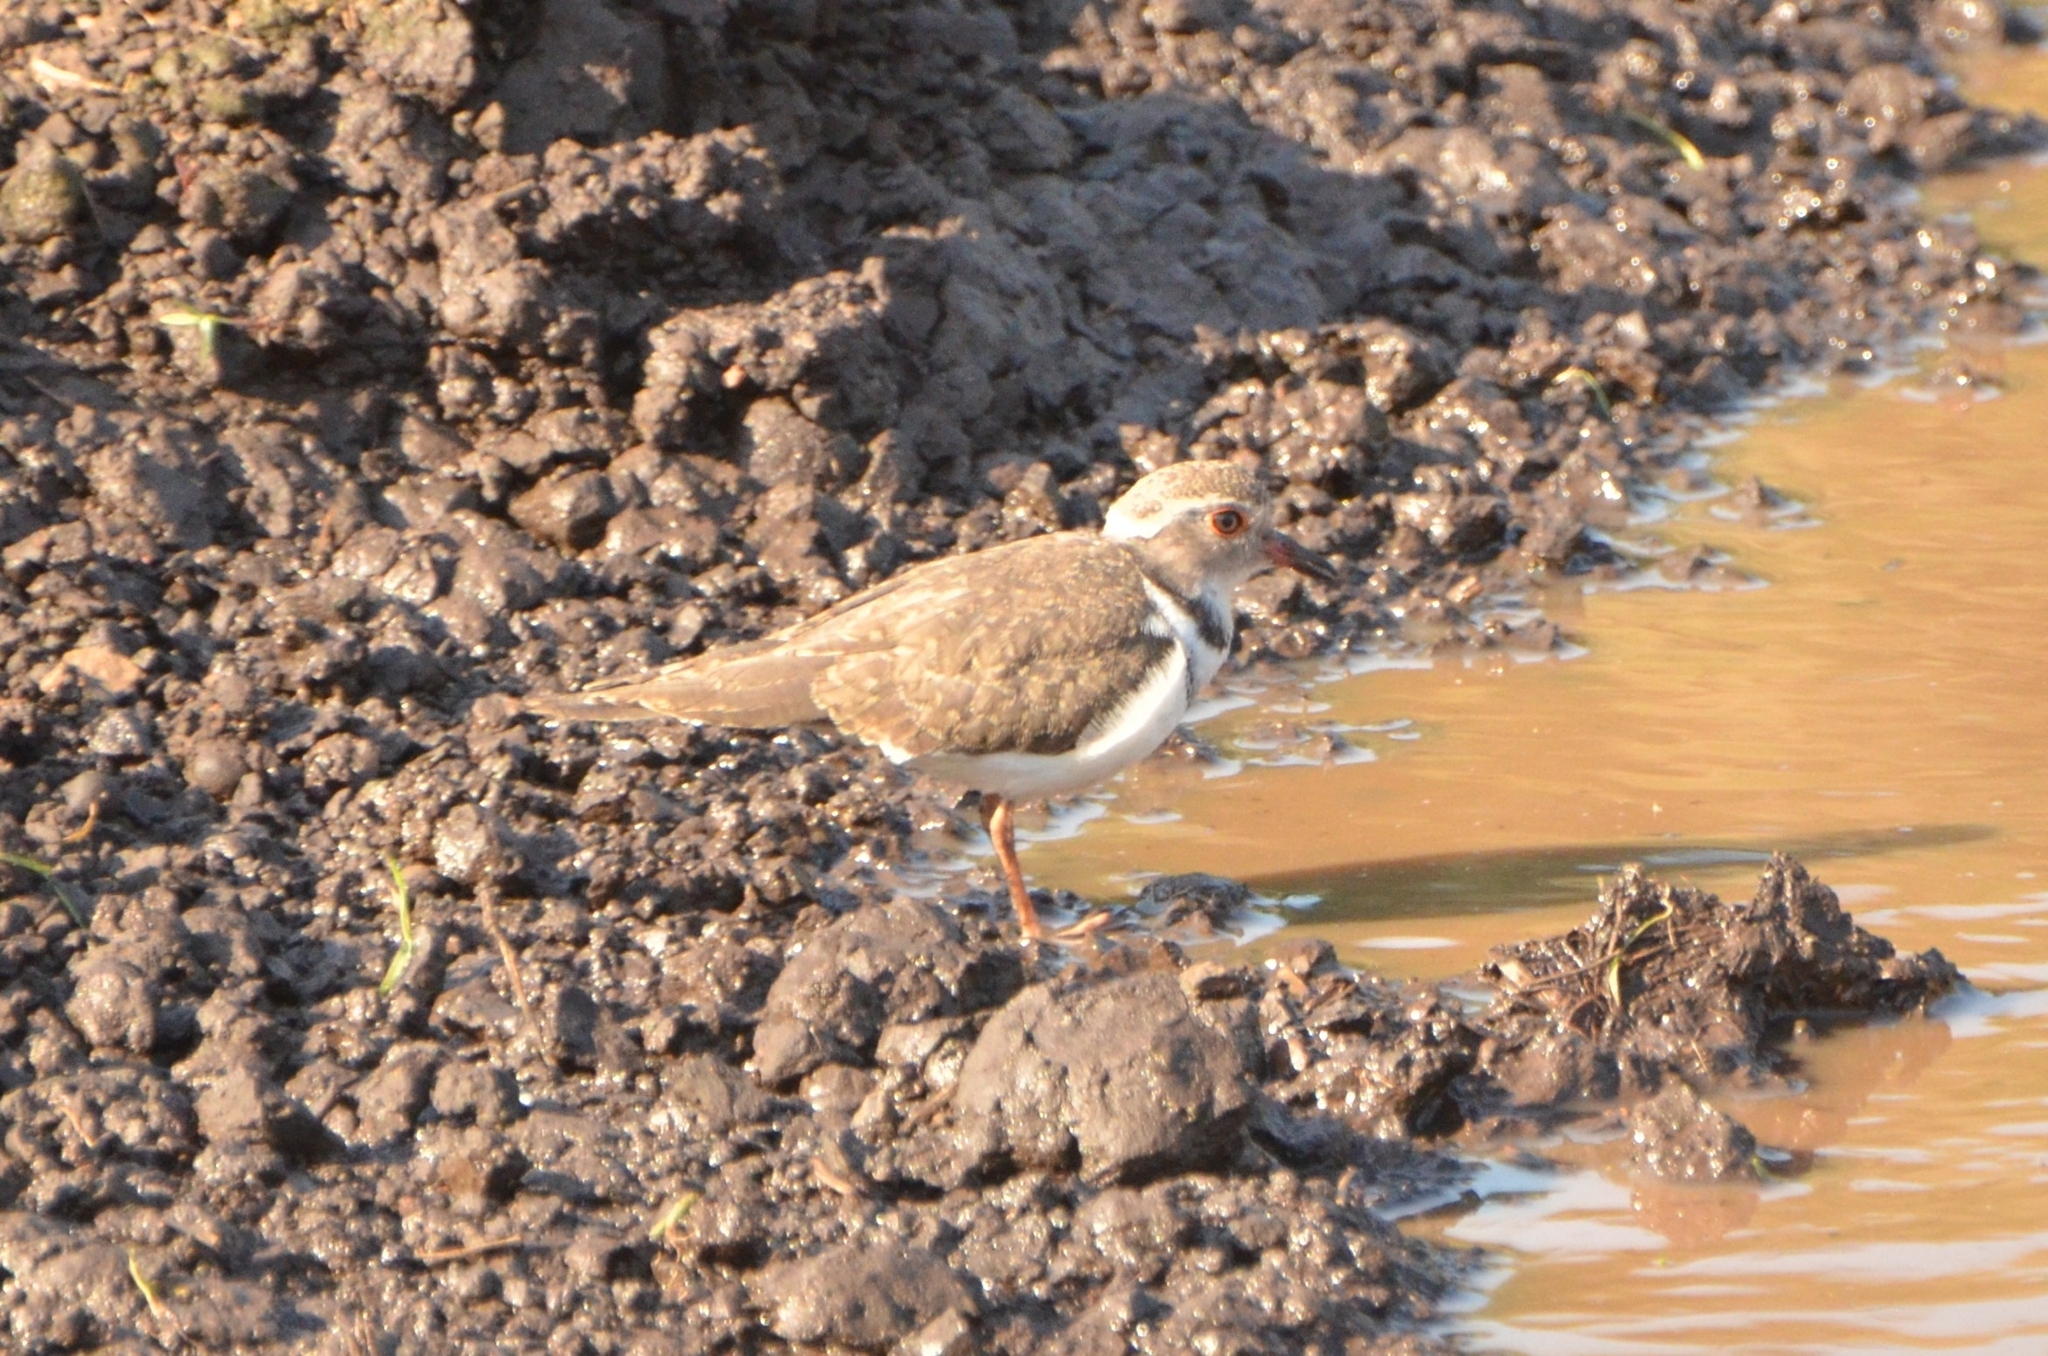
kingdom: Animalia
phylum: Chordata
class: Aves
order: Charadriiformes
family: Charadriidae
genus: Charadrius
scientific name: Charadrius tricollaris
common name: Three-banded plover
